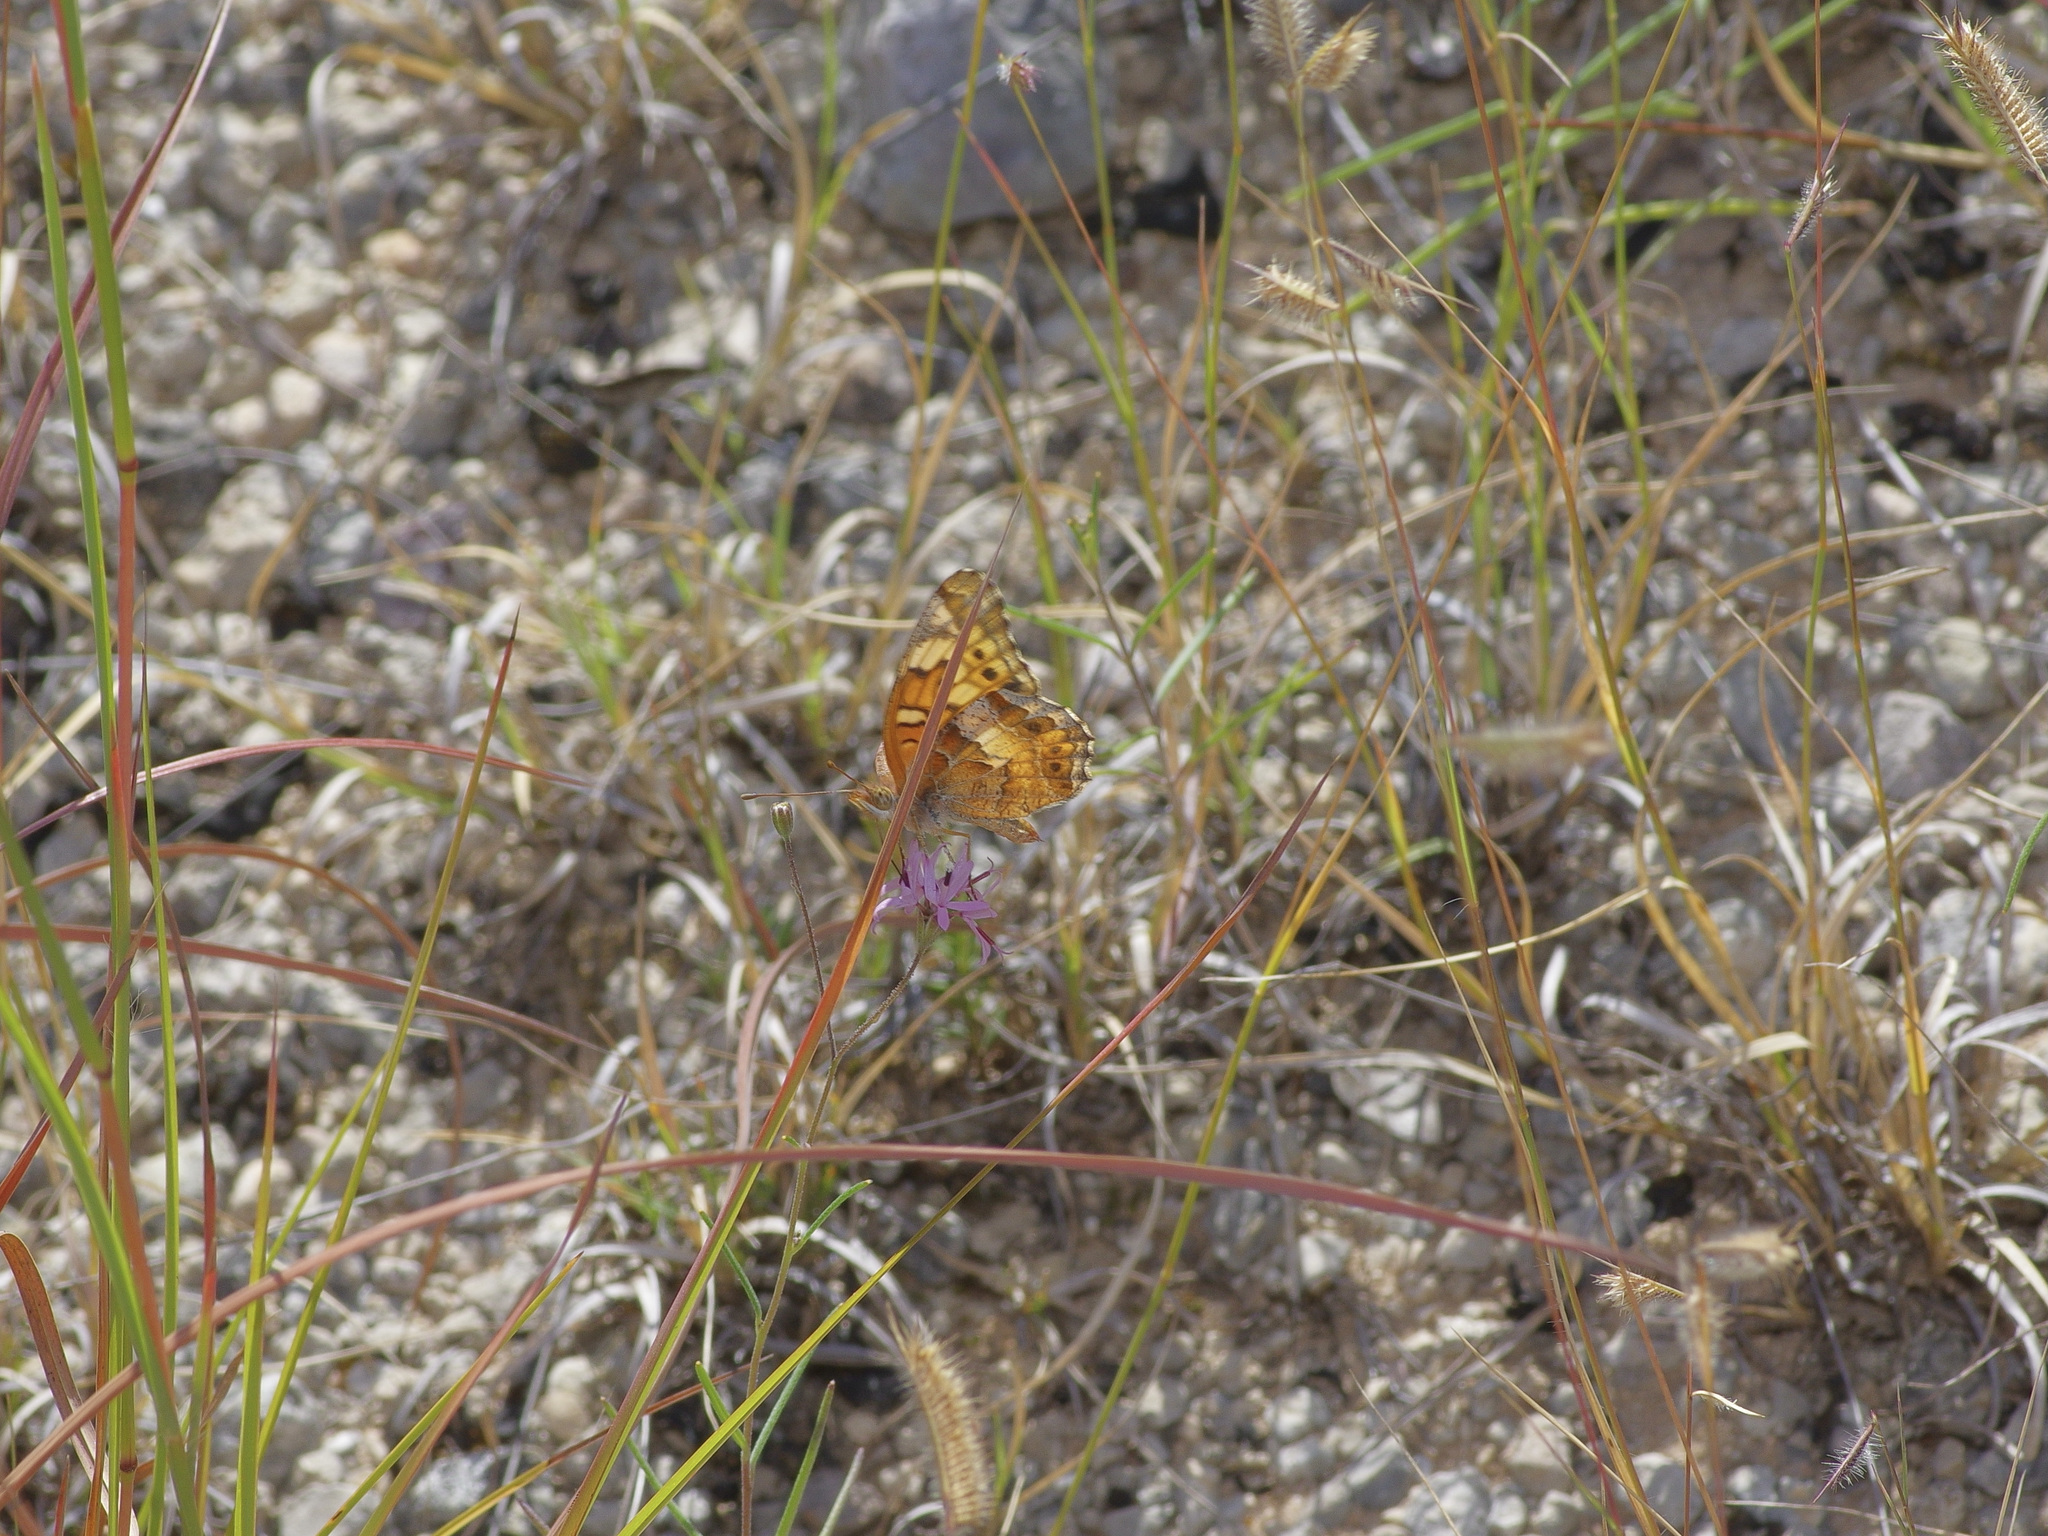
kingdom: Animalia
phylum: Arthropoda
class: Insecta
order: Lepidoptera
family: Nymphalidae
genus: Euptoieta
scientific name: Euptoieta claudia
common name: Variegated fritillary
